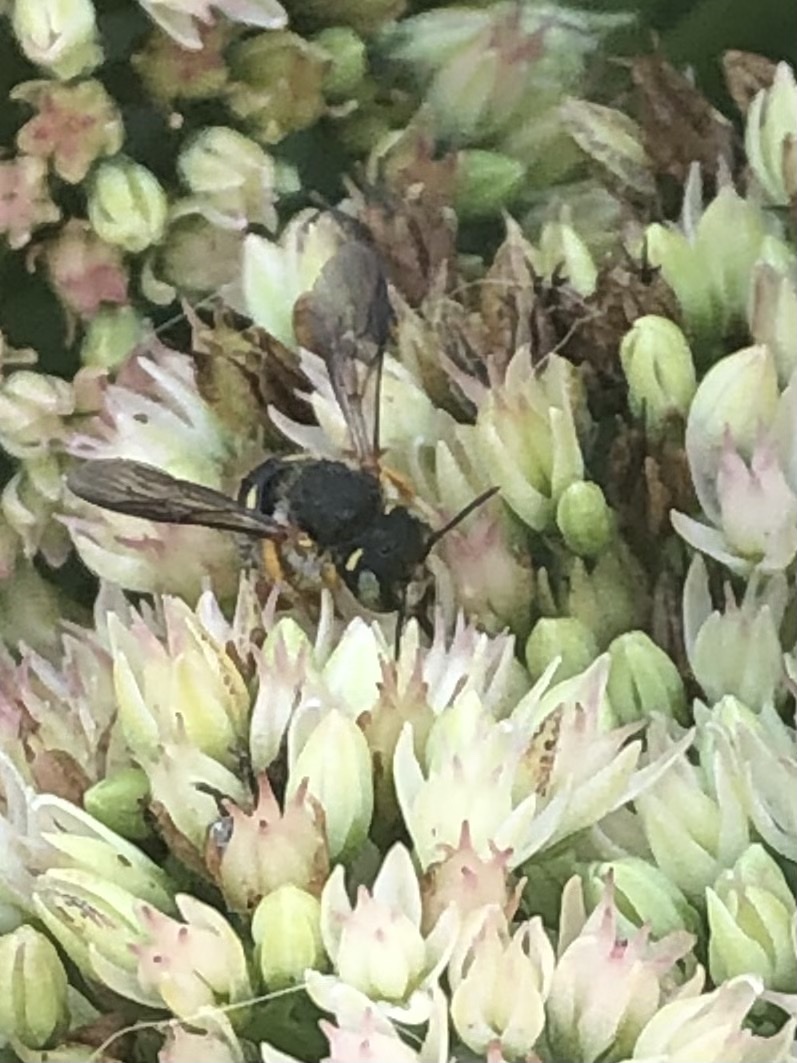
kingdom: Animalia
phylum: Arthropoda
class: Insecta
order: Hymenoptera
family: Megachilidae
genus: Anthidium
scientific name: Anthidium oblongatum
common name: Oblong wool carder bee
